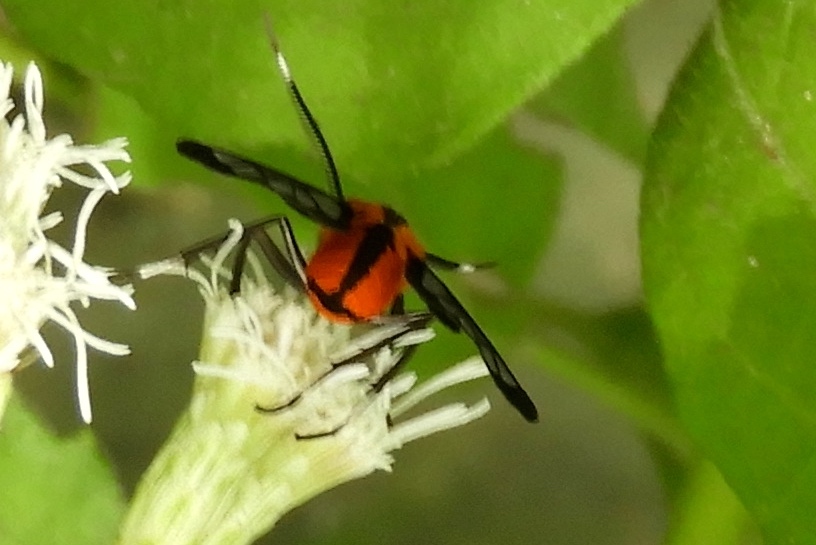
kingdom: Animalia
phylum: Arthropoda
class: Insecta
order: Lepidoptera
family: Erebidae
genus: Loxophlebia
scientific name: Loxophlebia imitata
